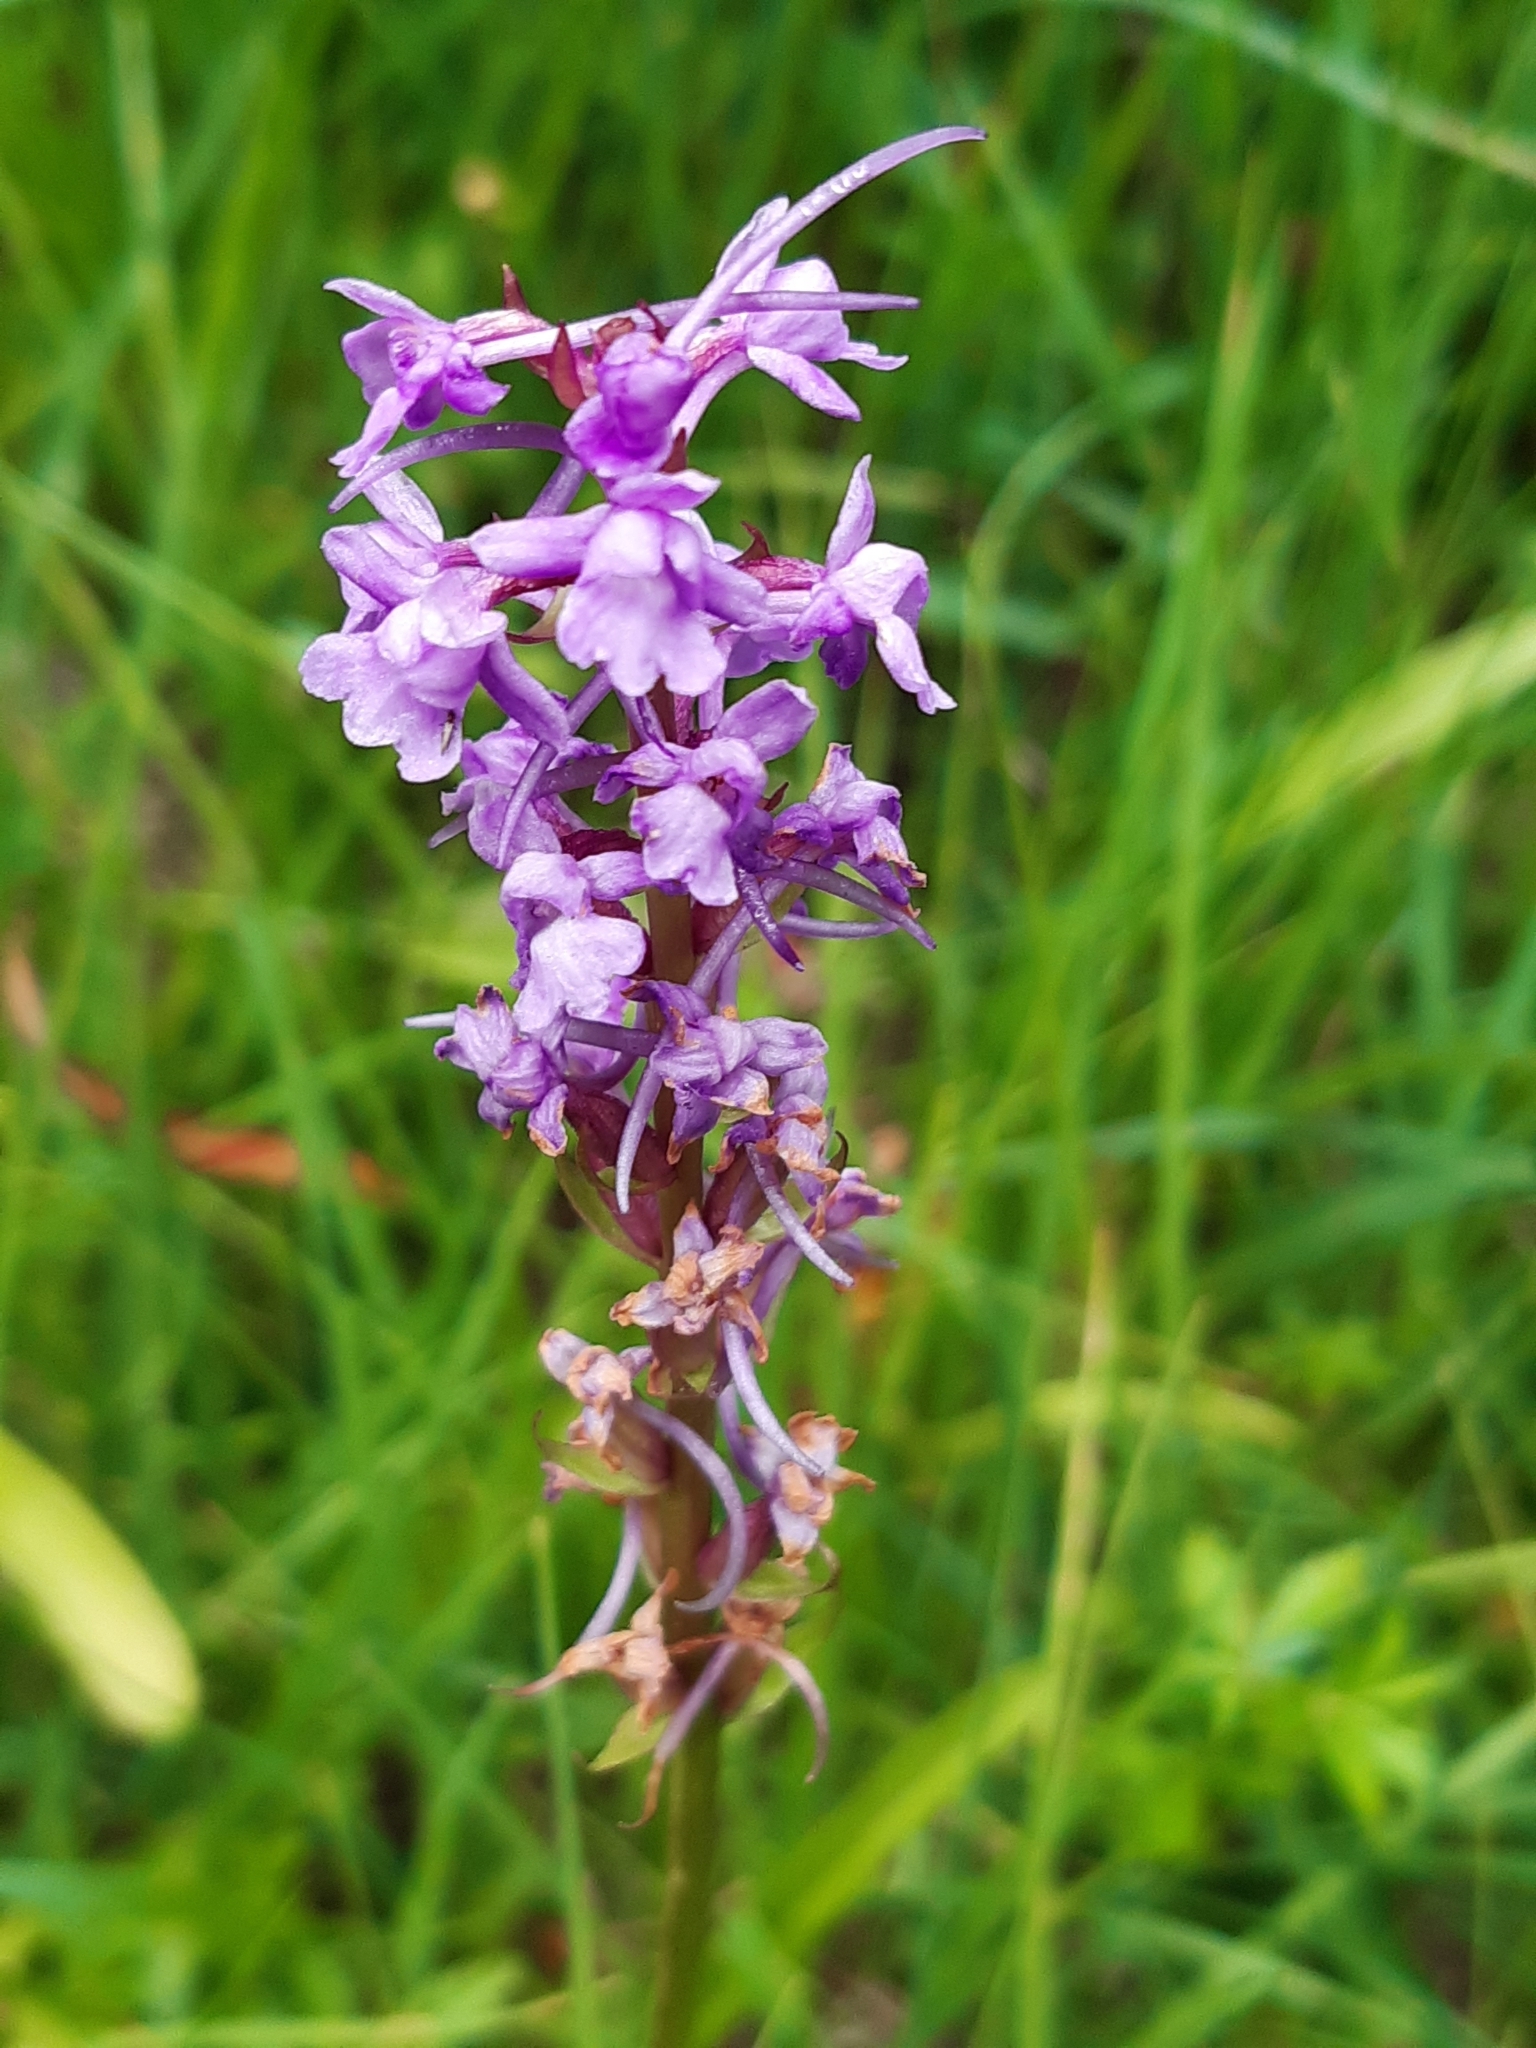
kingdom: Plantae
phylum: Tracheophyta
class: Liliopsida
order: Asparagales
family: Orchidaceae
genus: Gymnadenia
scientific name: Gymnadenia conopsea
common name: Fragrant orchid
